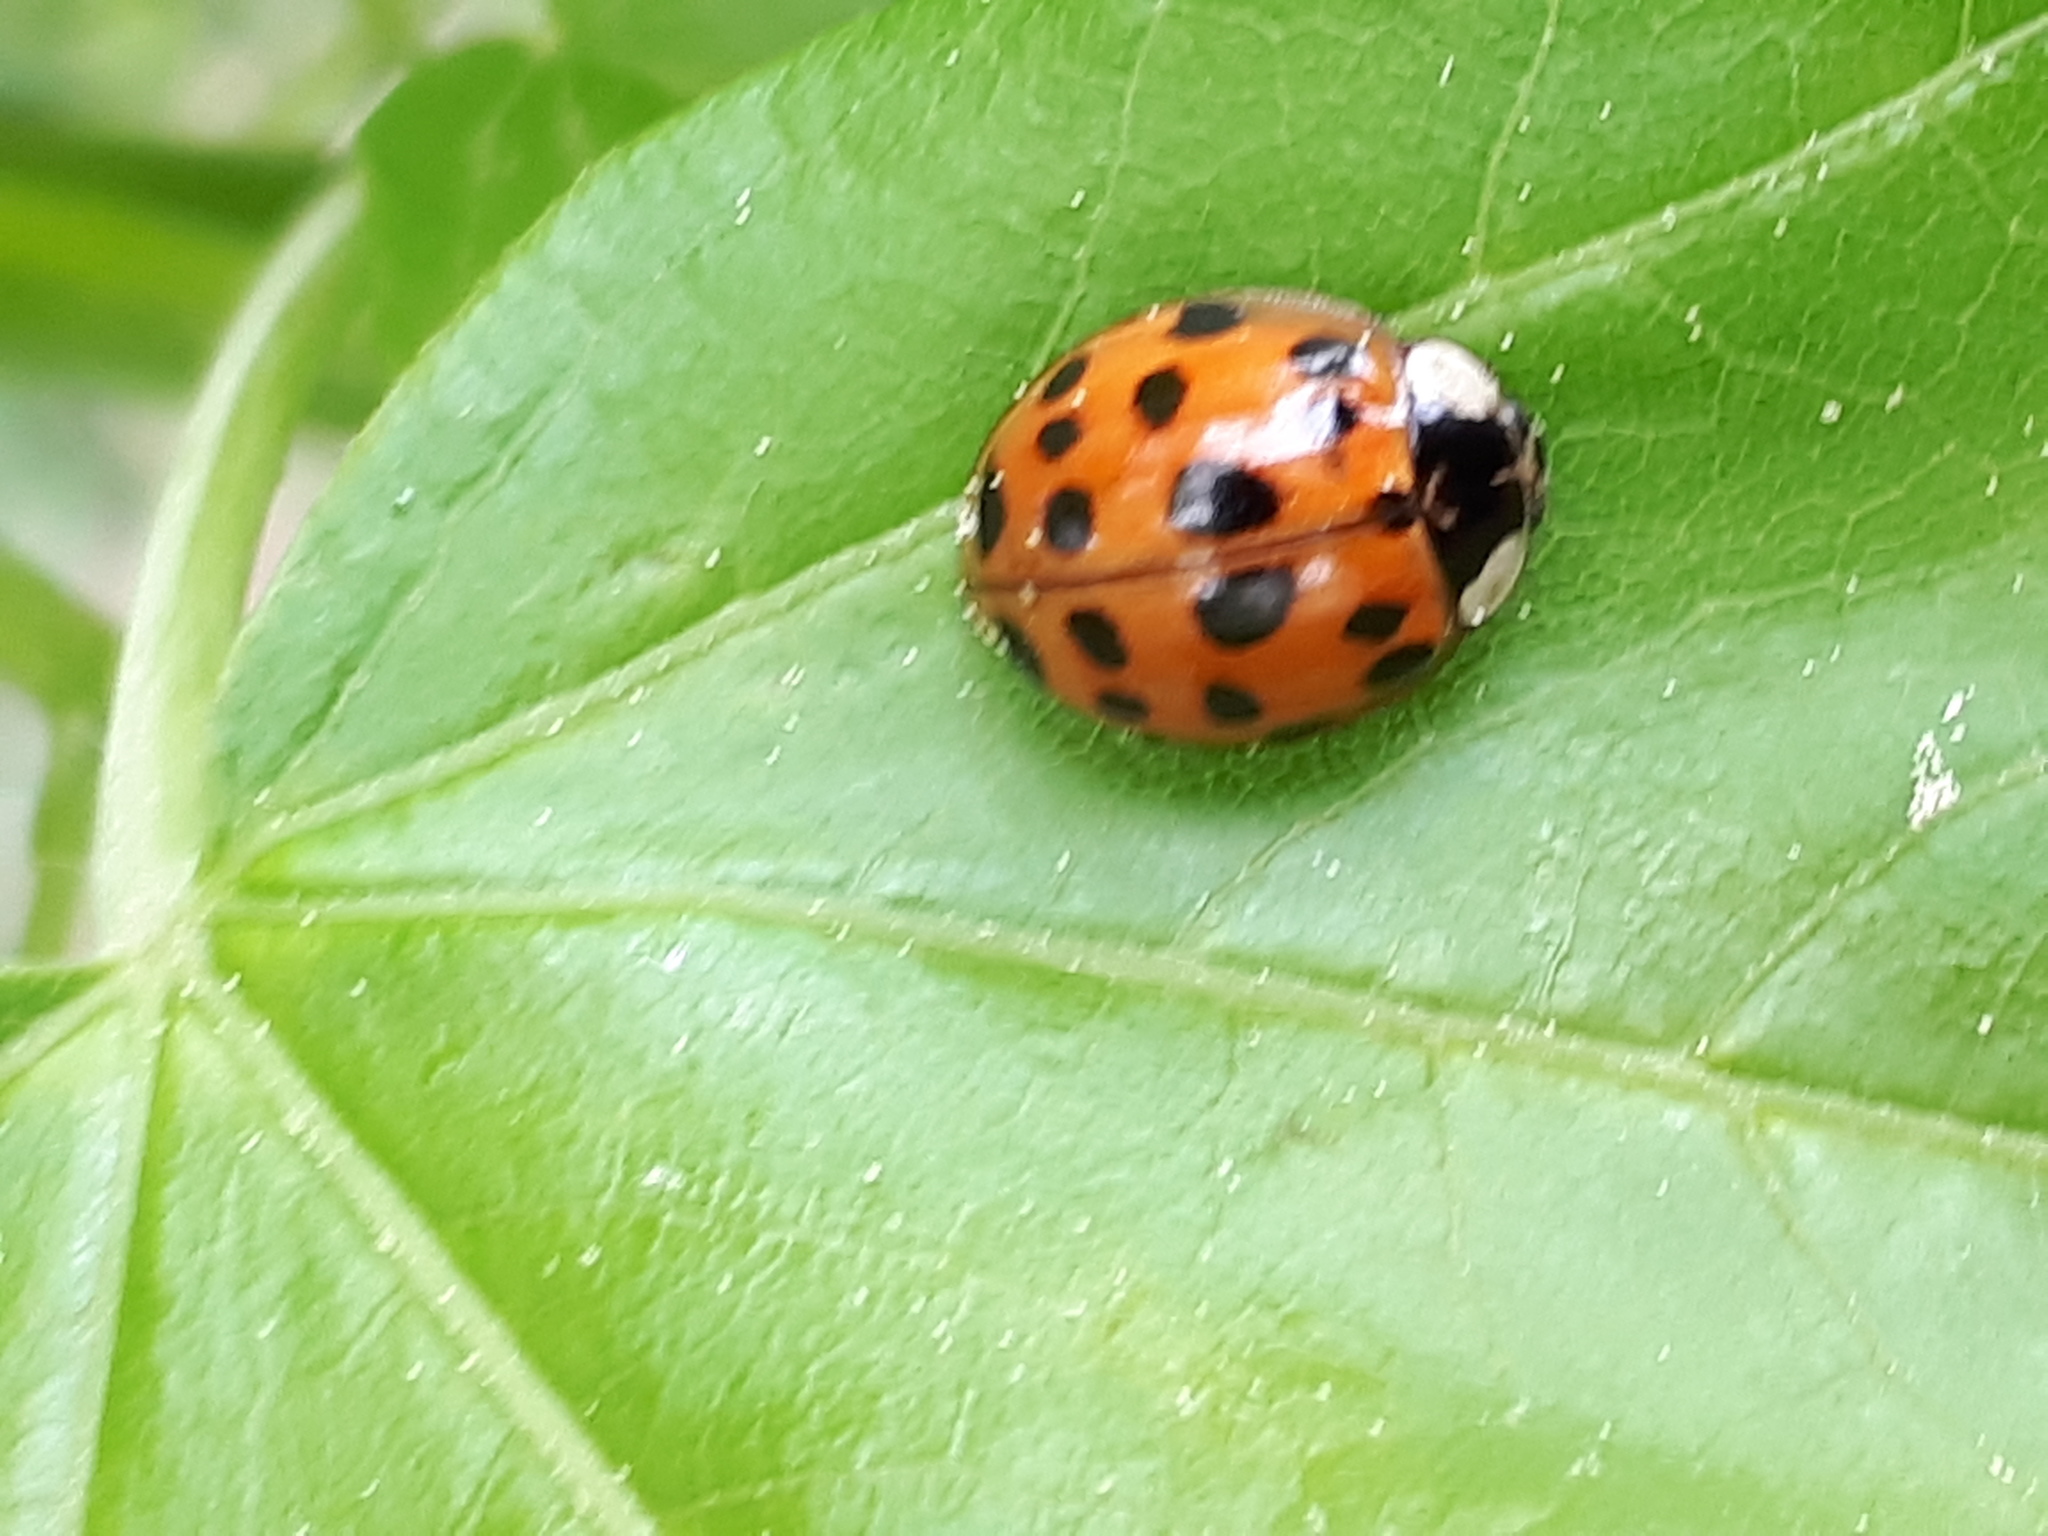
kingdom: Animalia
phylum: Arthropoda
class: Insecta
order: Coleoptera
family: Coccinellidae
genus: Harmonia
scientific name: Harmonia axyridis
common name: Harlequin ladybird
